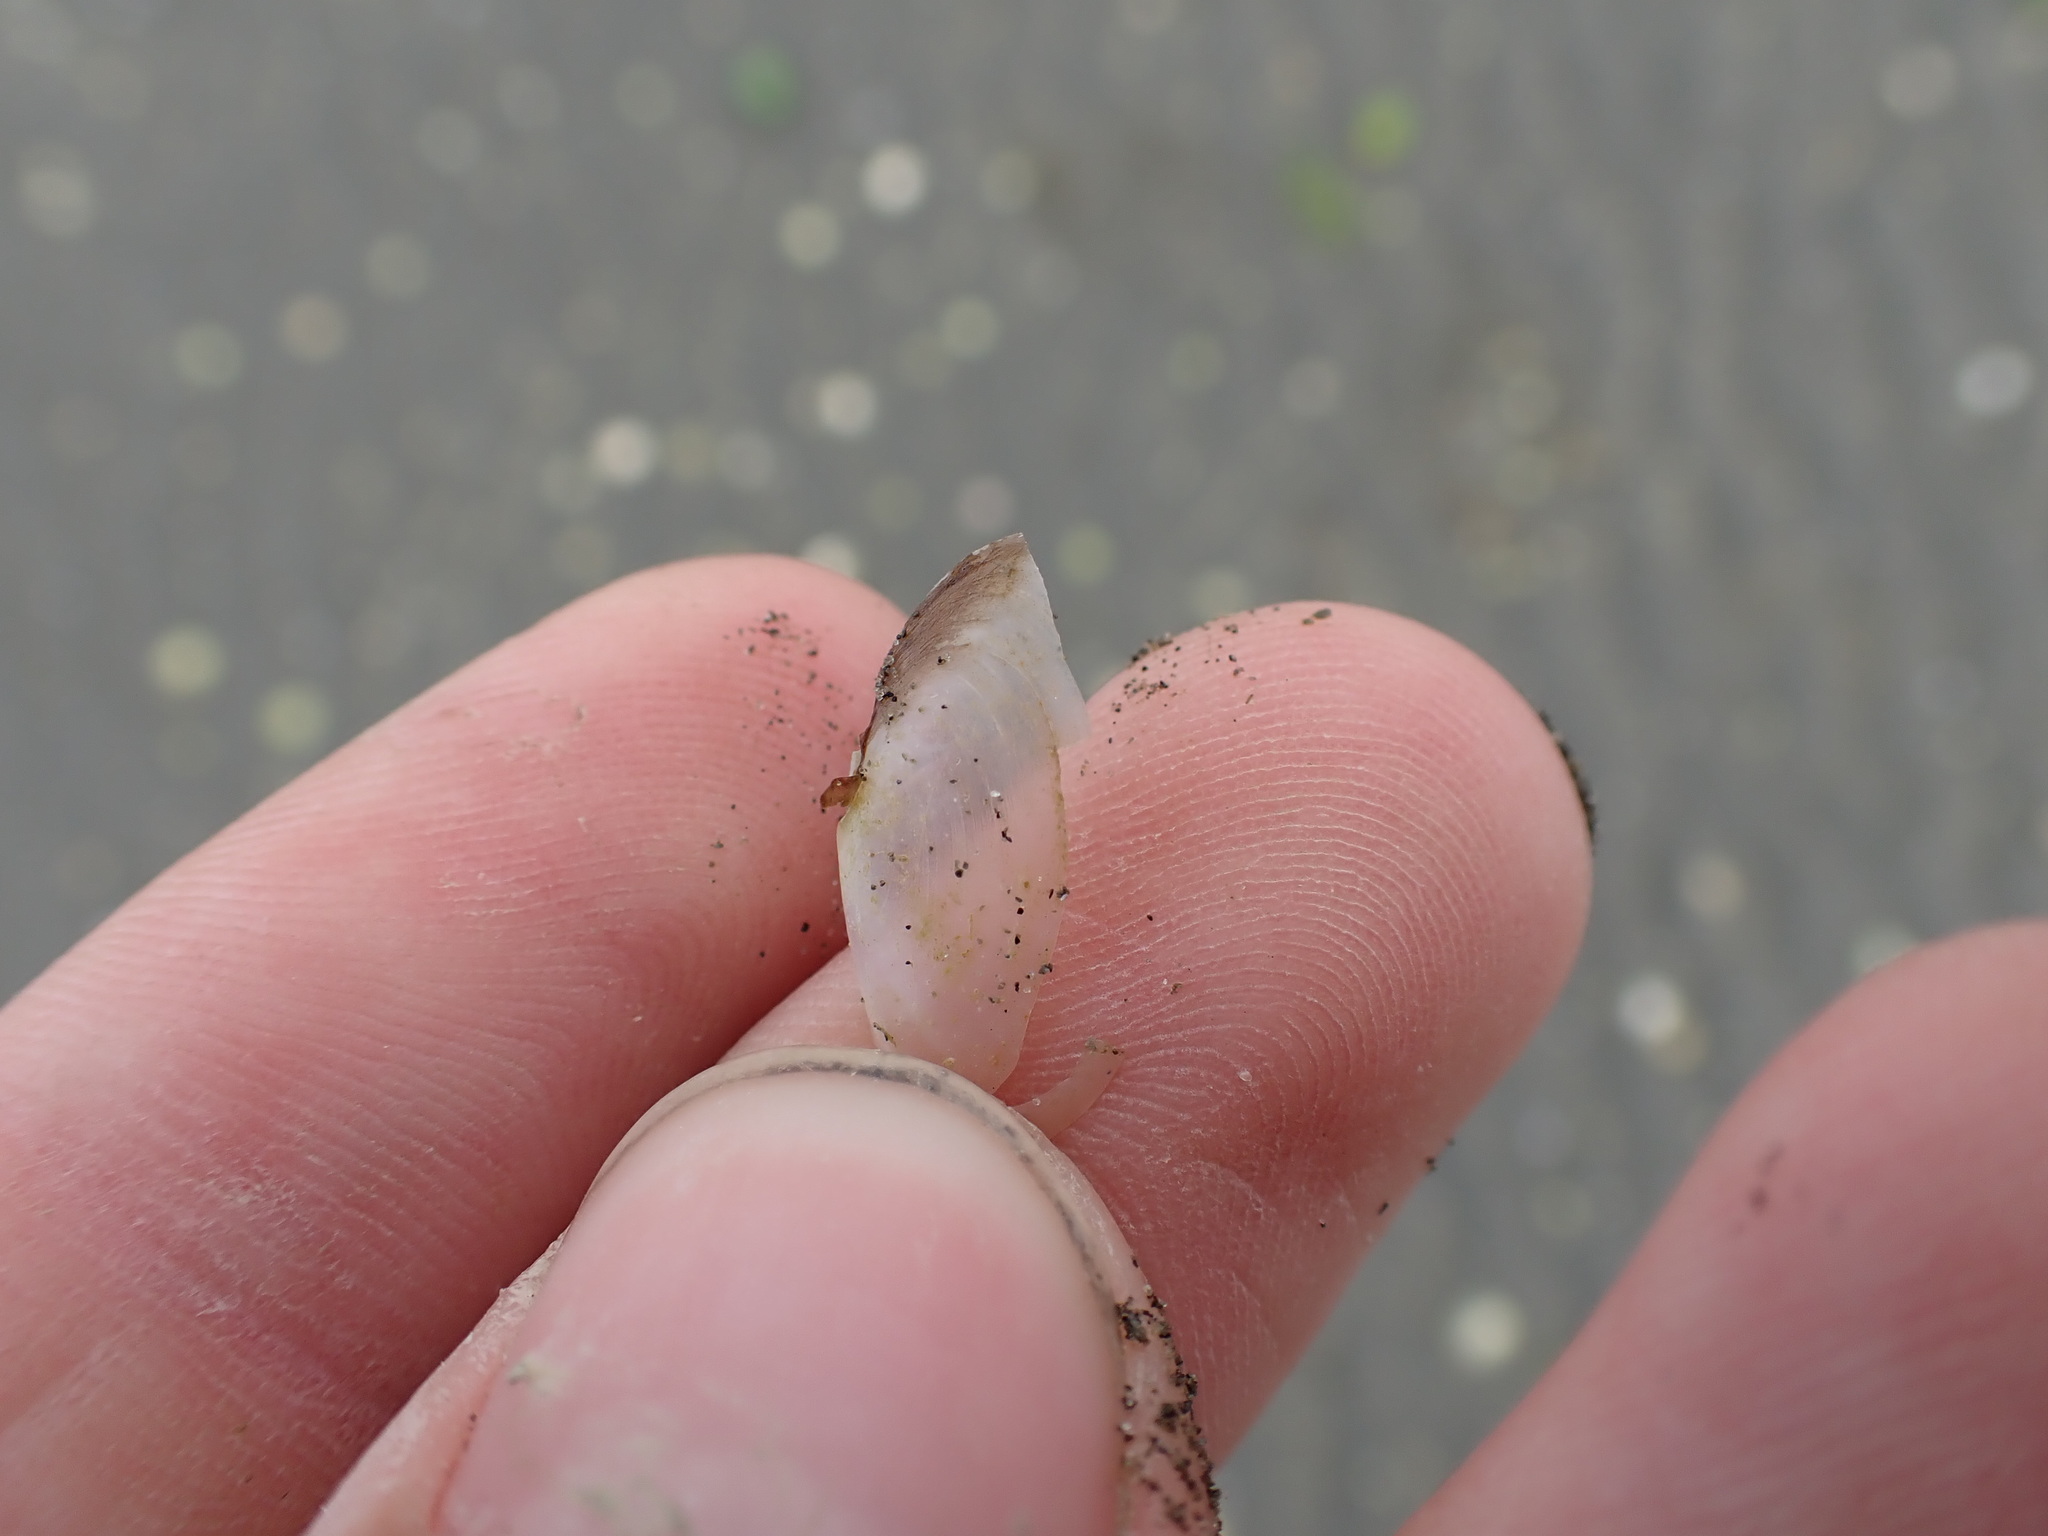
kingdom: Animalia
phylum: Mollusca
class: Bivalvia
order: Cardiida
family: Psammobiidae
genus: Hiatula
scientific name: Hiatula siliquens
